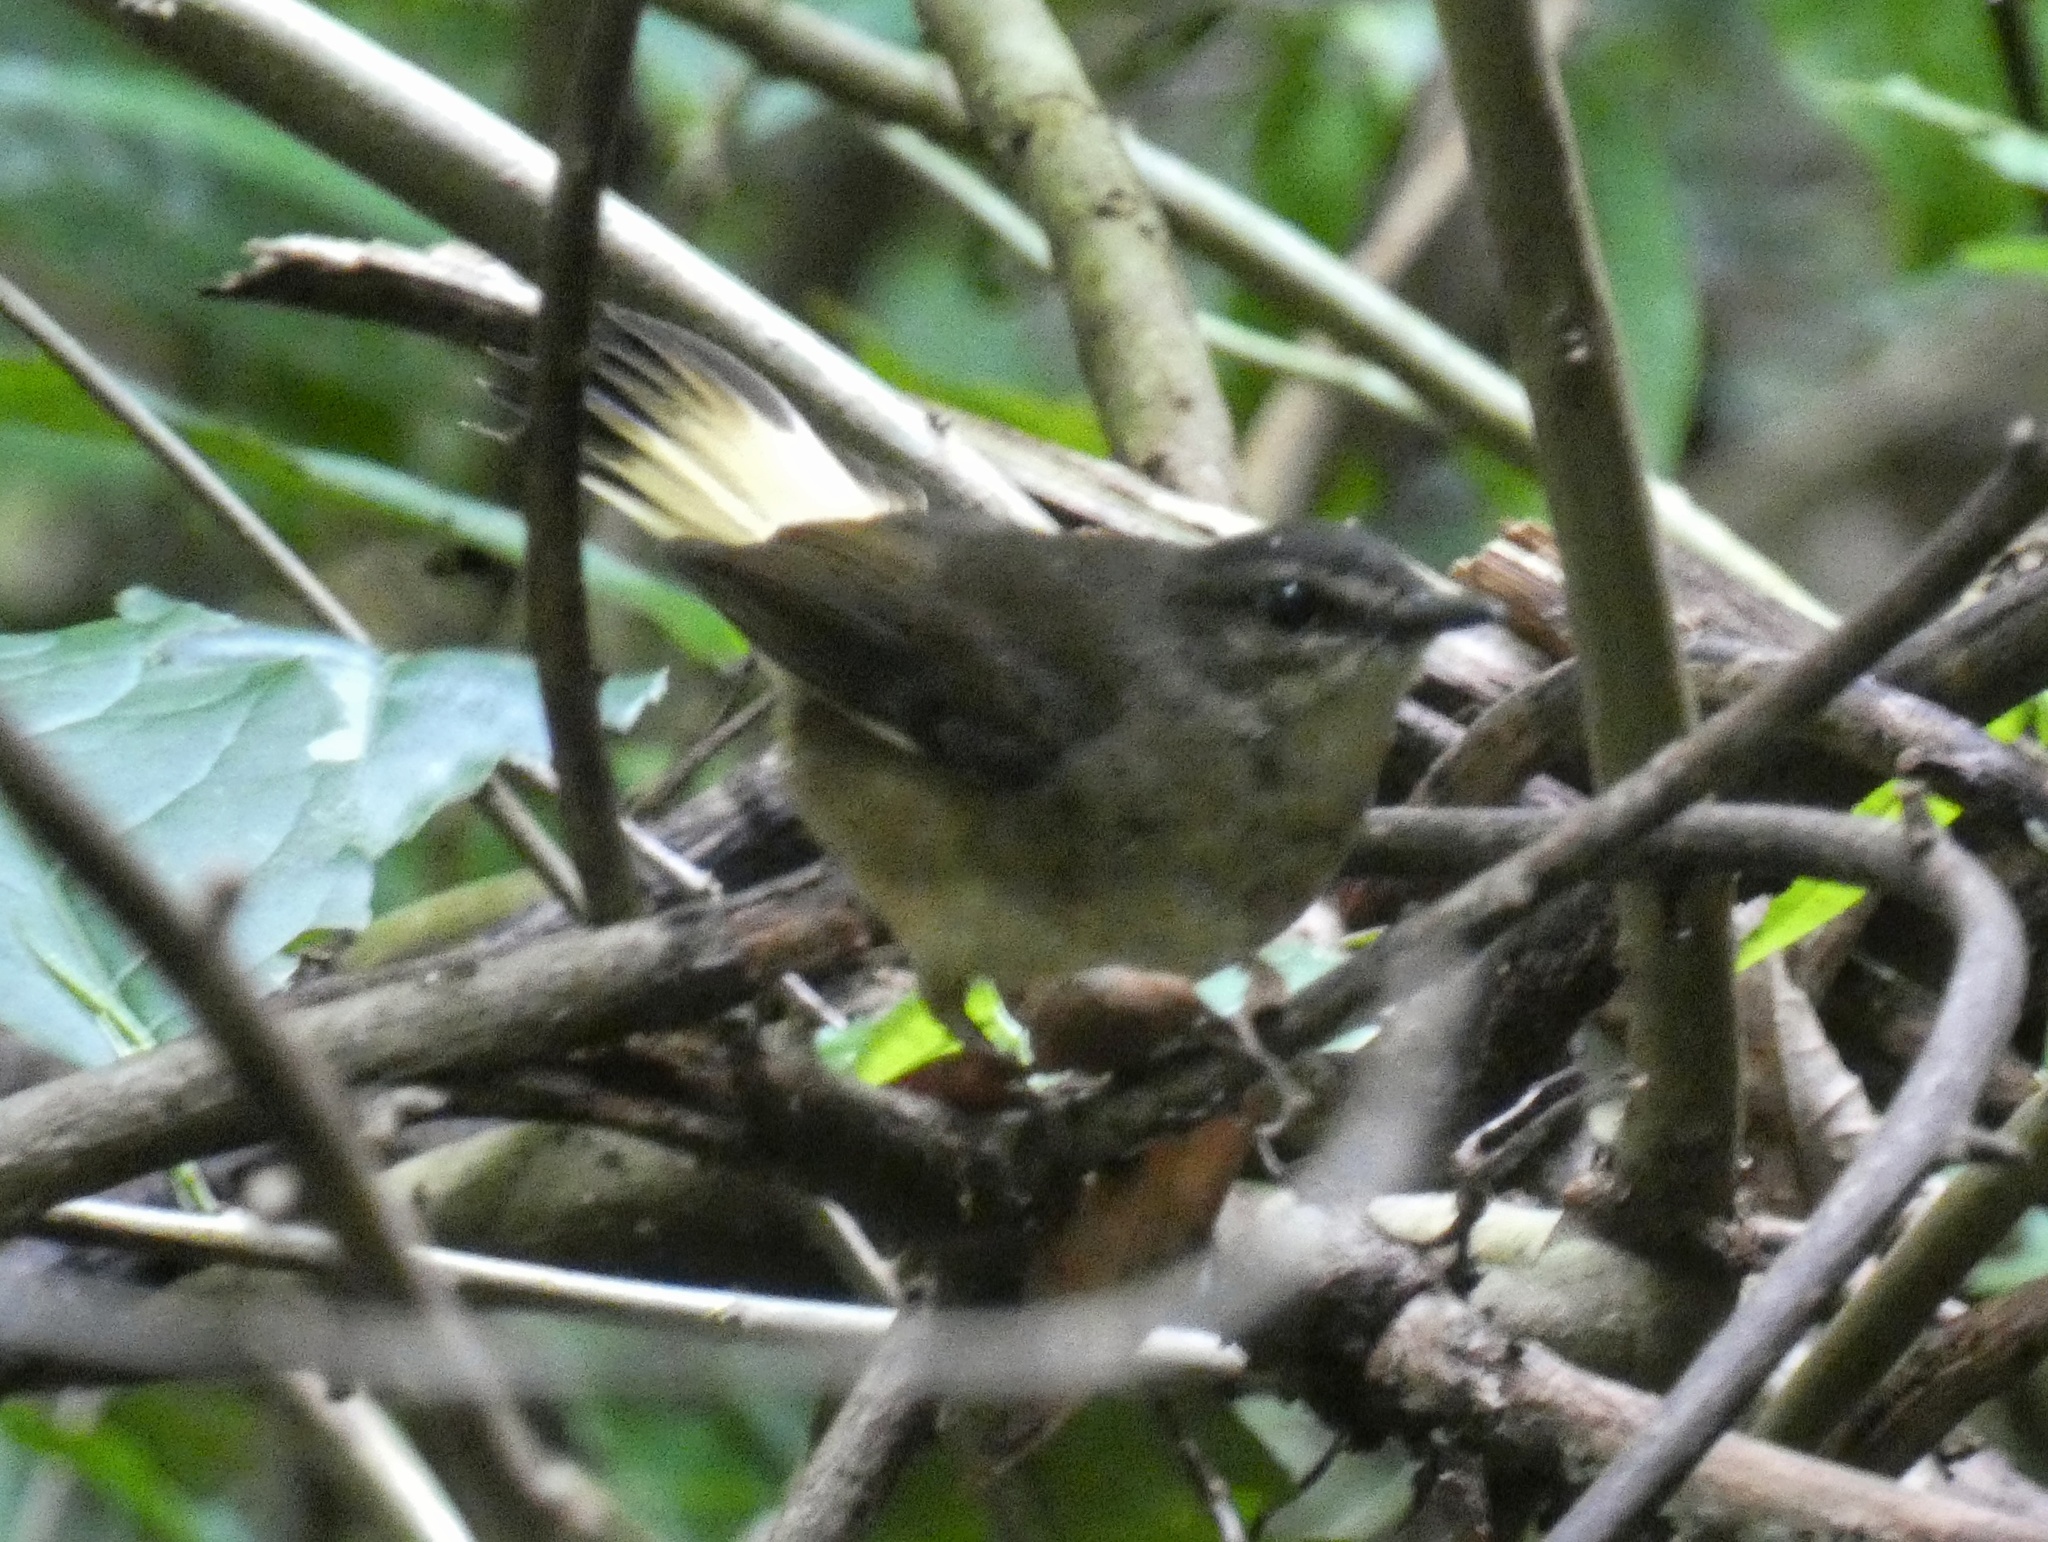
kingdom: Animalia
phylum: Chordata
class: Aves
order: Passeriformes
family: Parulidae
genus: Myiothlypis
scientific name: Myiothlypis fulvicauda
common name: Buff-rumped warbler
